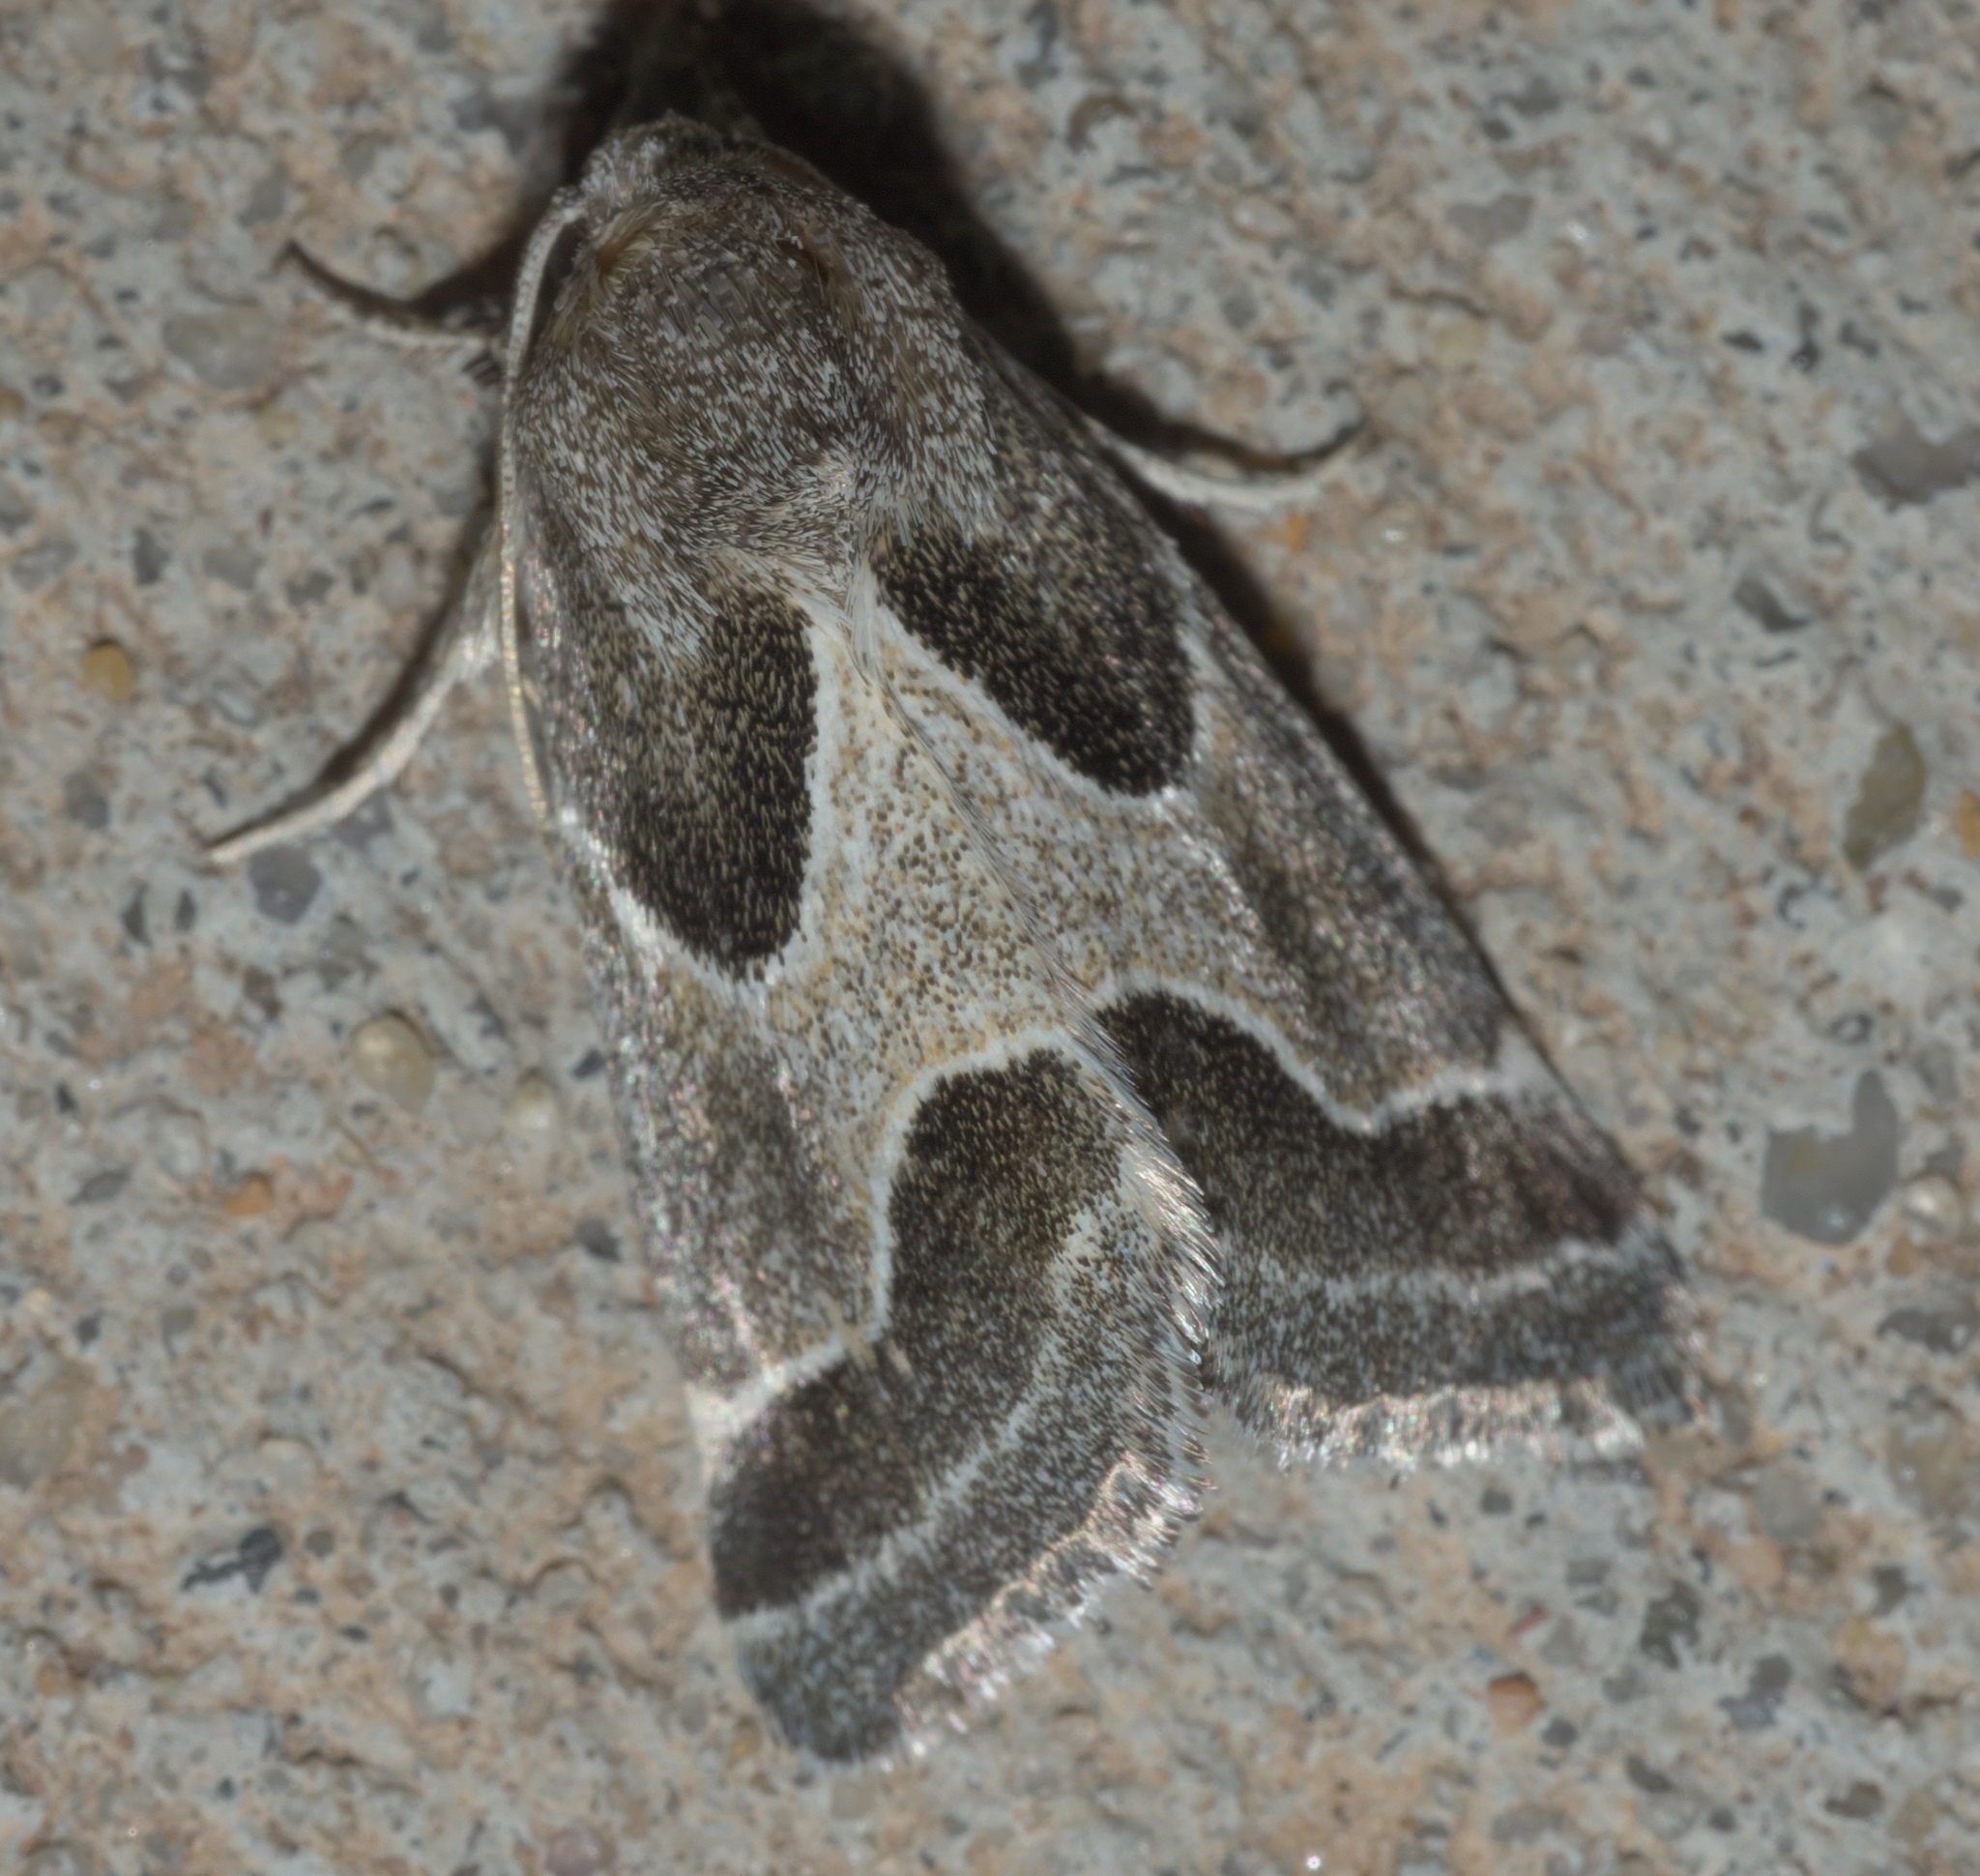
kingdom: Animalia
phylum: Arthropoda
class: Insecta
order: Lepidoptera
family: Noctuidae
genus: Schinia
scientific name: Schinia rivulosa
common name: Scarce meal-moth
